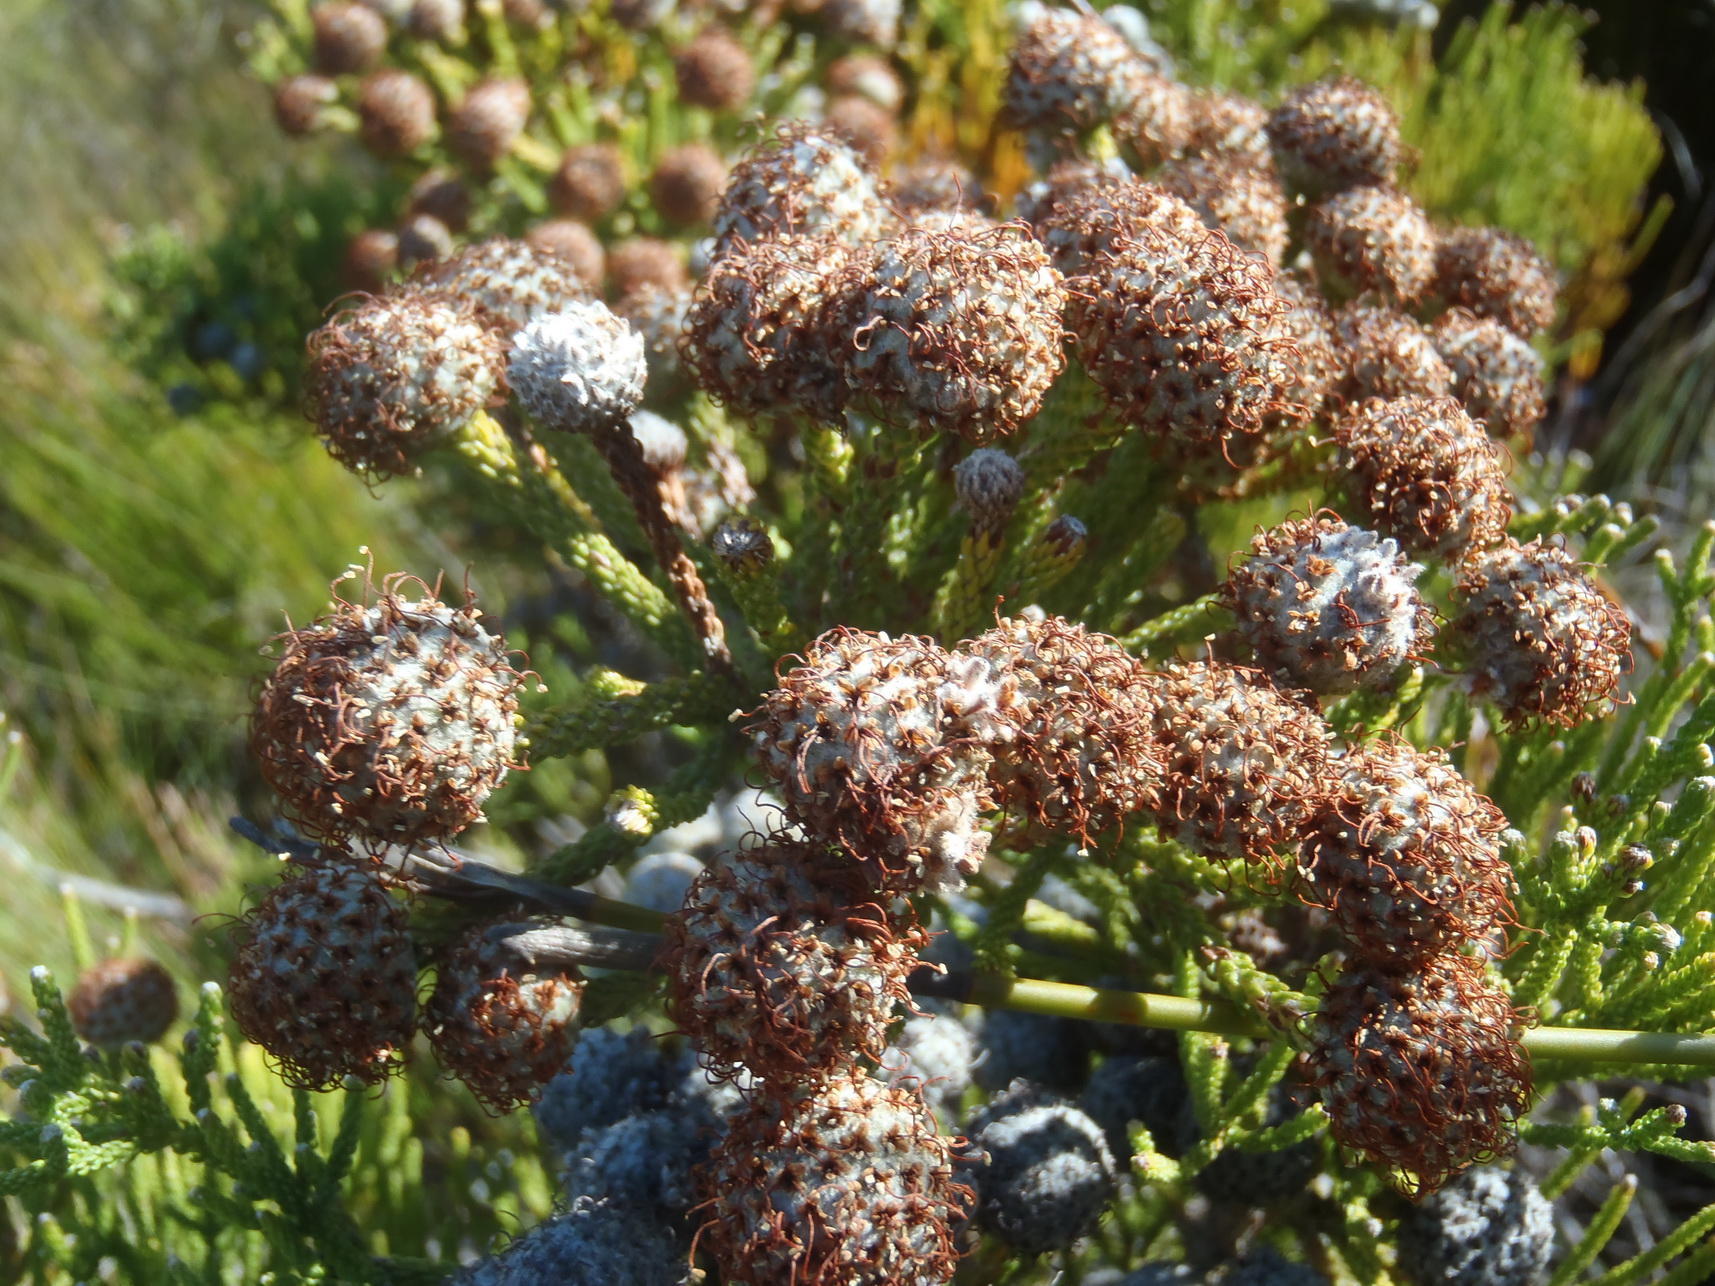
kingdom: Plantae
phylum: Tracheophyta
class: Magnoliopsida
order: Bruniales
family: Bruniaceae
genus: Brunia
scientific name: Brunia noduliflora
